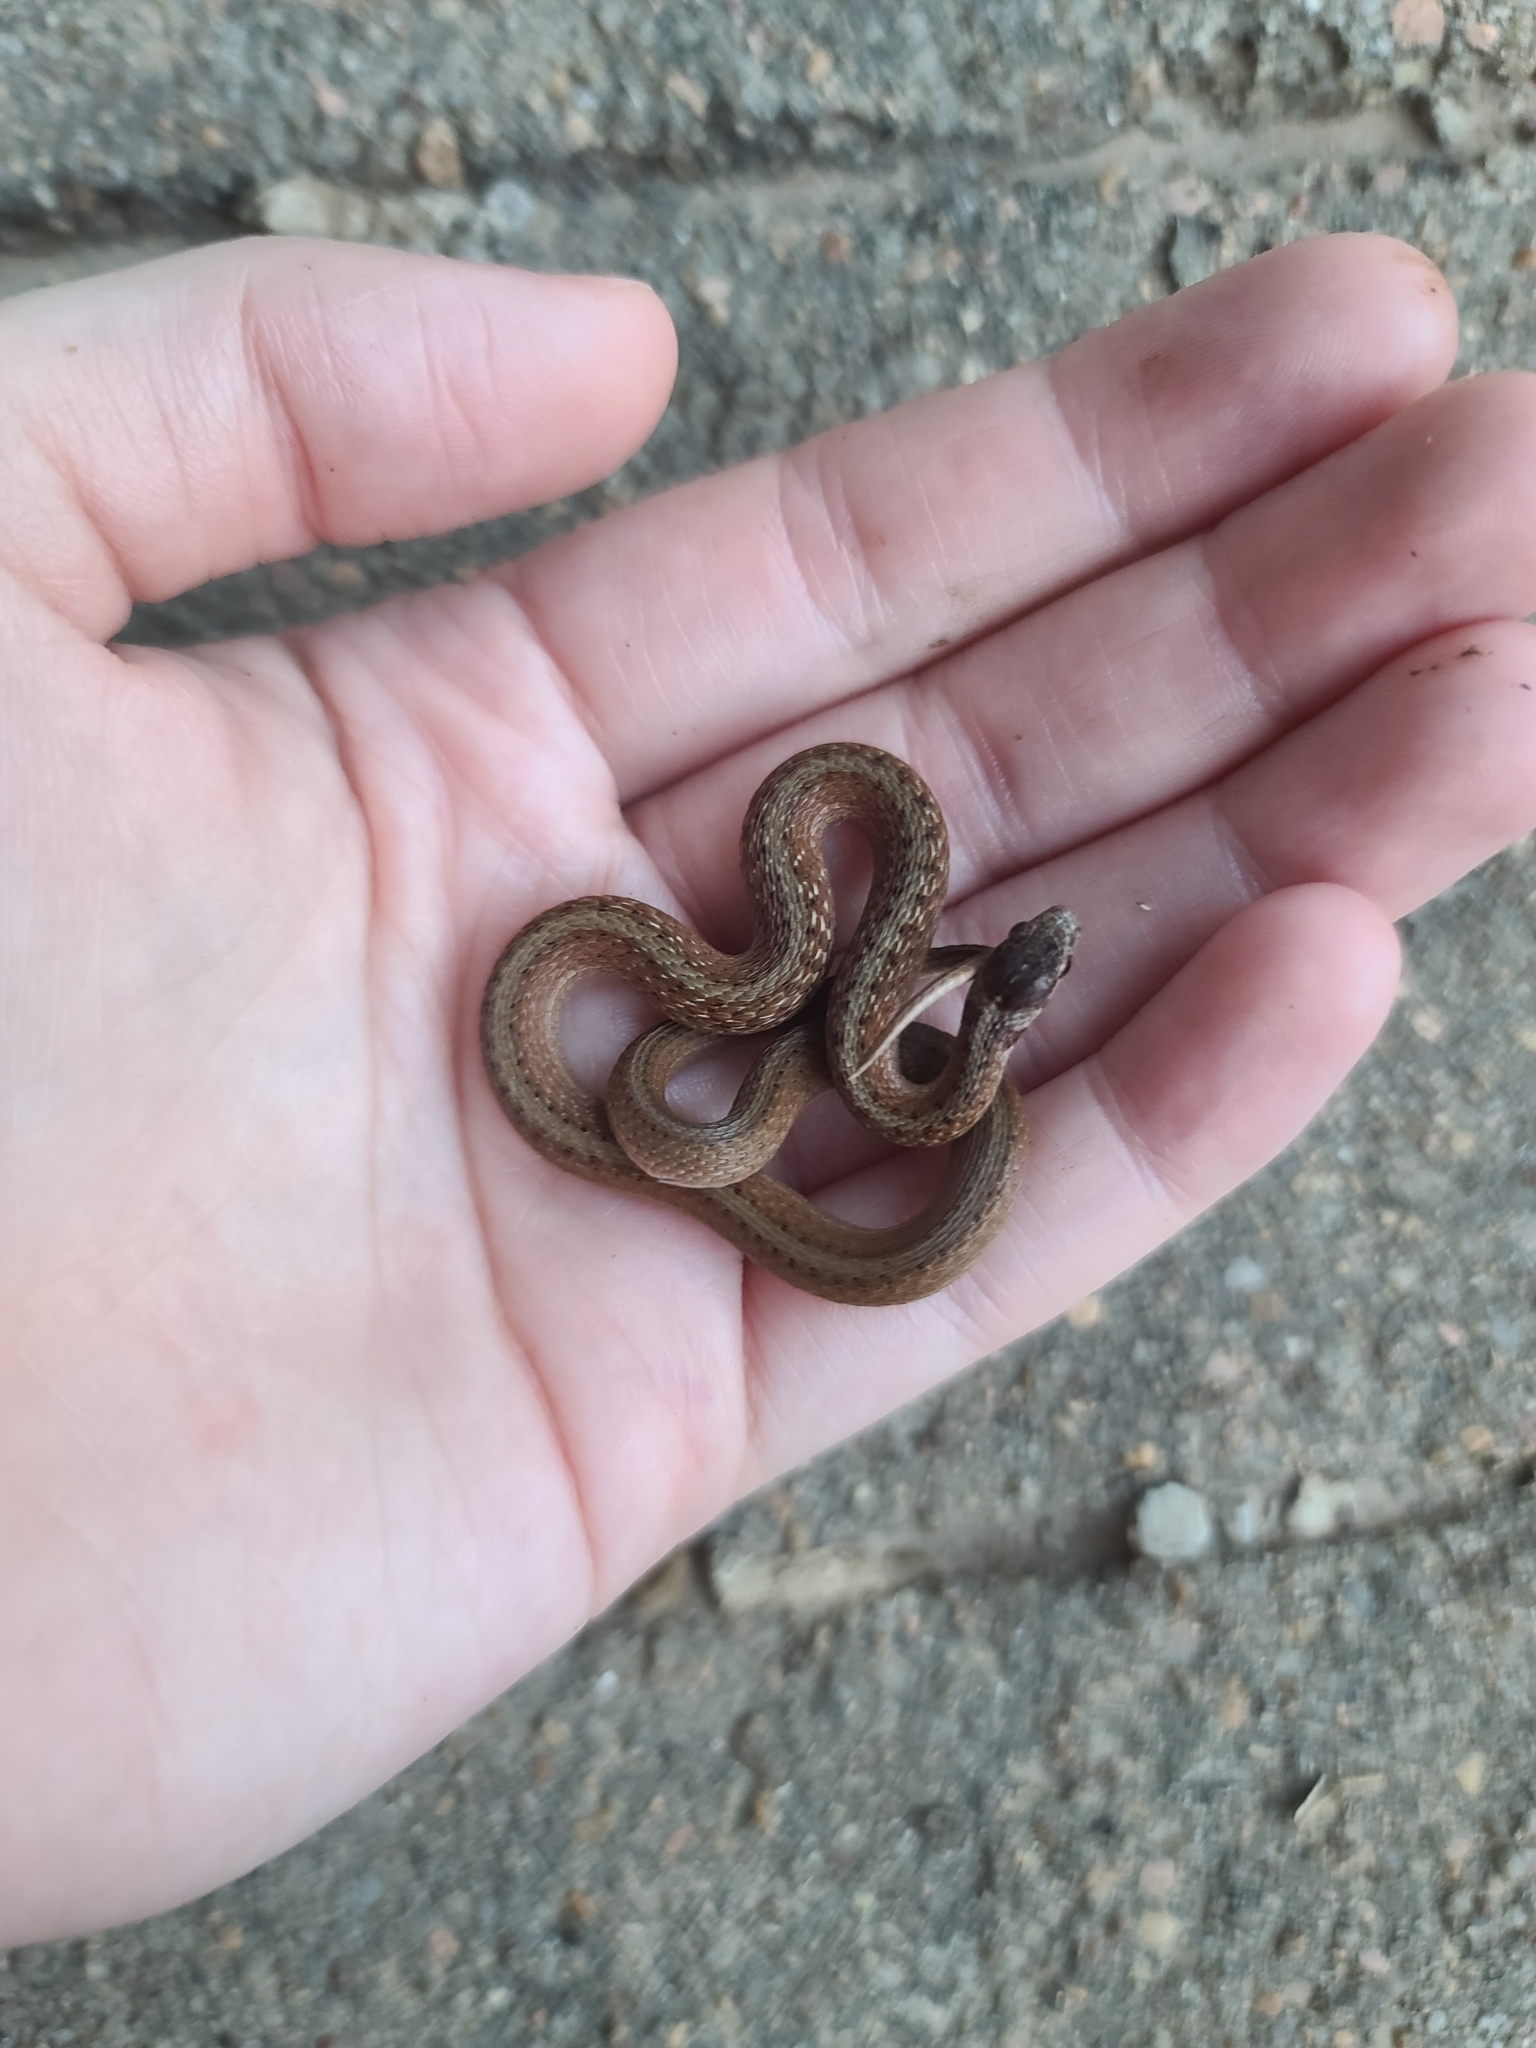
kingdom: Animalia
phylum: Chordata
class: Squamata
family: Colubridae
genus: Storeria
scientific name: Storeria dekayi
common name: (dekay’s) brown snake
